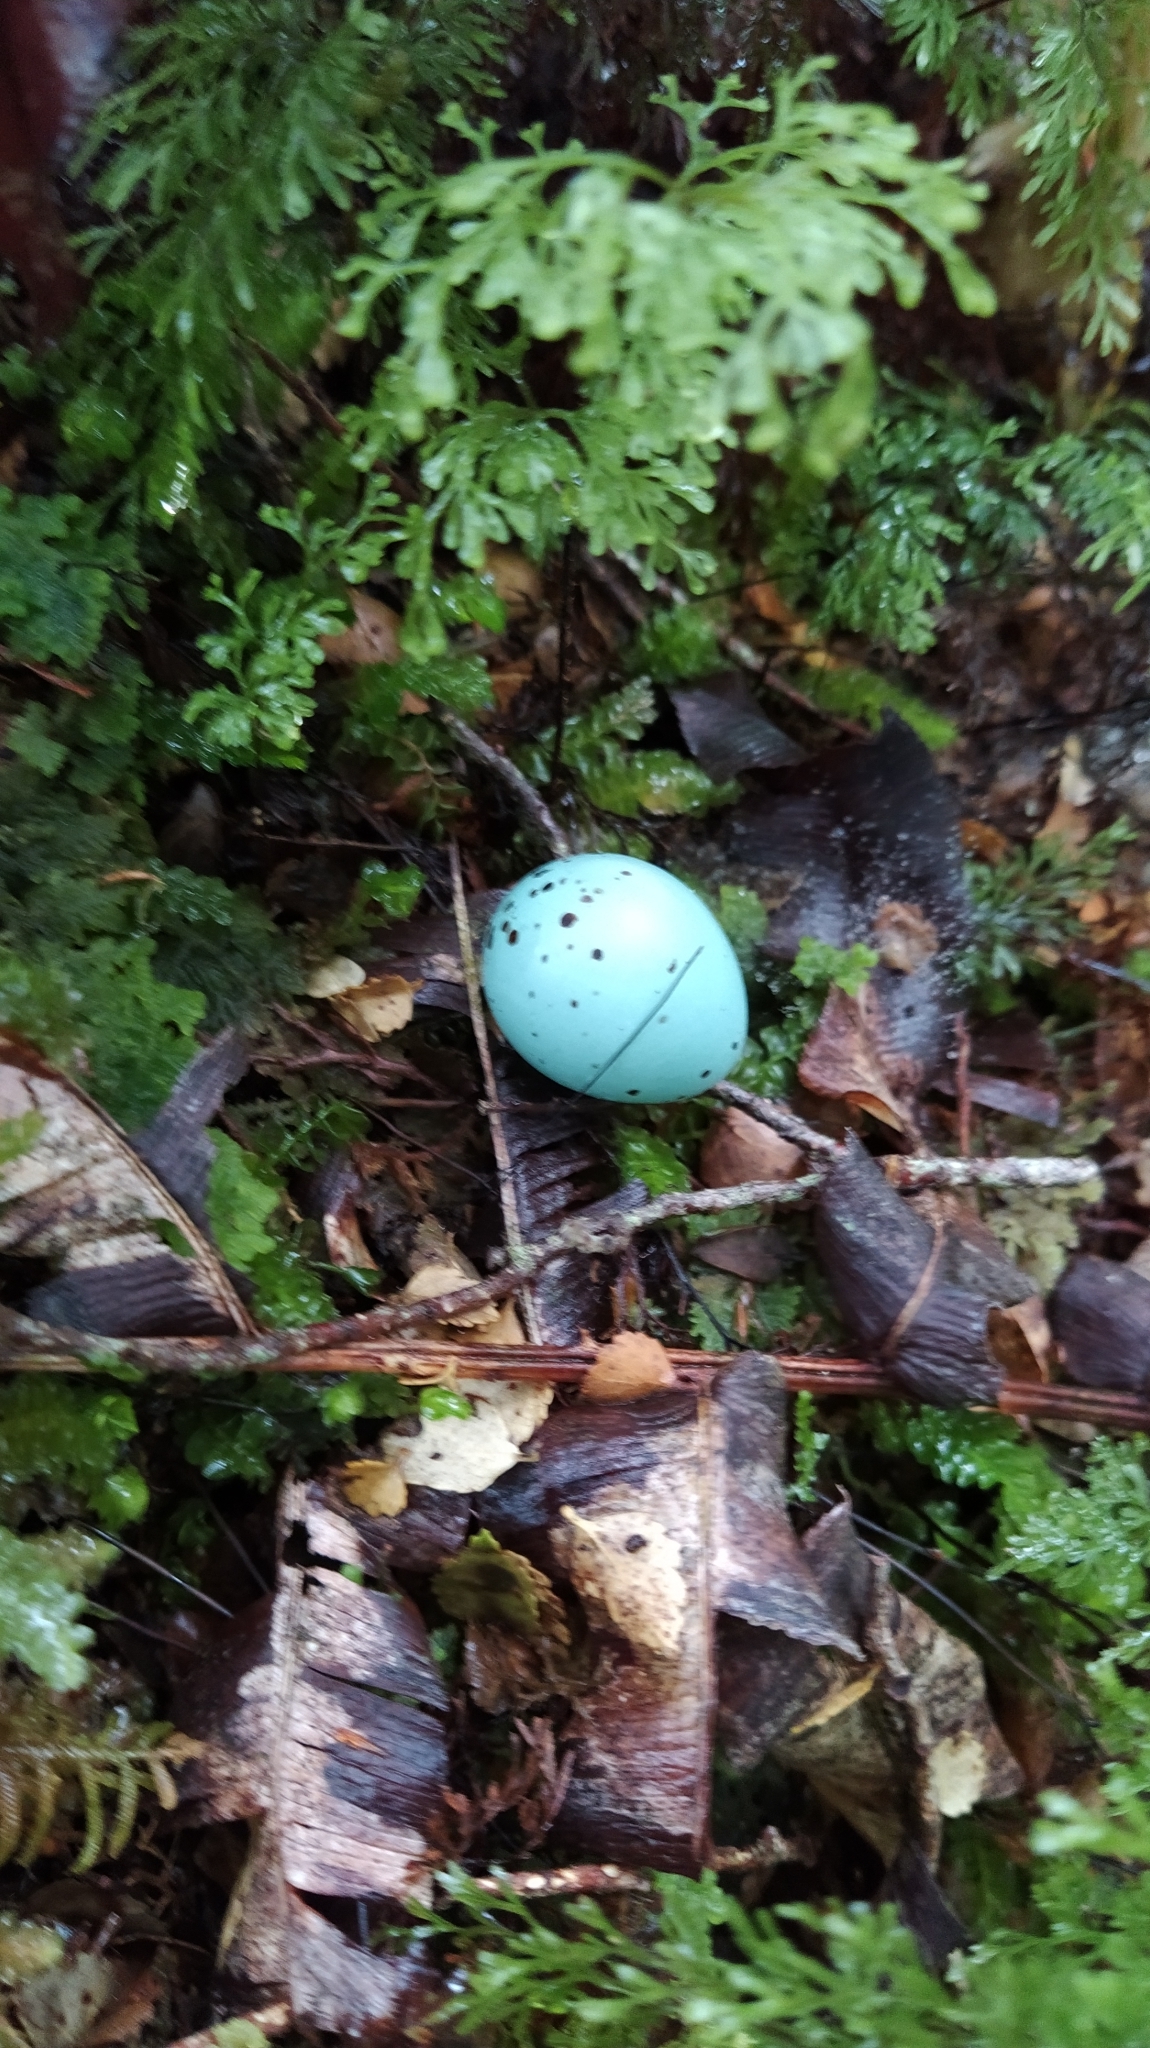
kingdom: Animalia
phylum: Chordata
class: Aves
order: Passeriformes
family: Turdidae
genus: Turdus
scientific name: Turdus philomelos
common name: Song thrush
